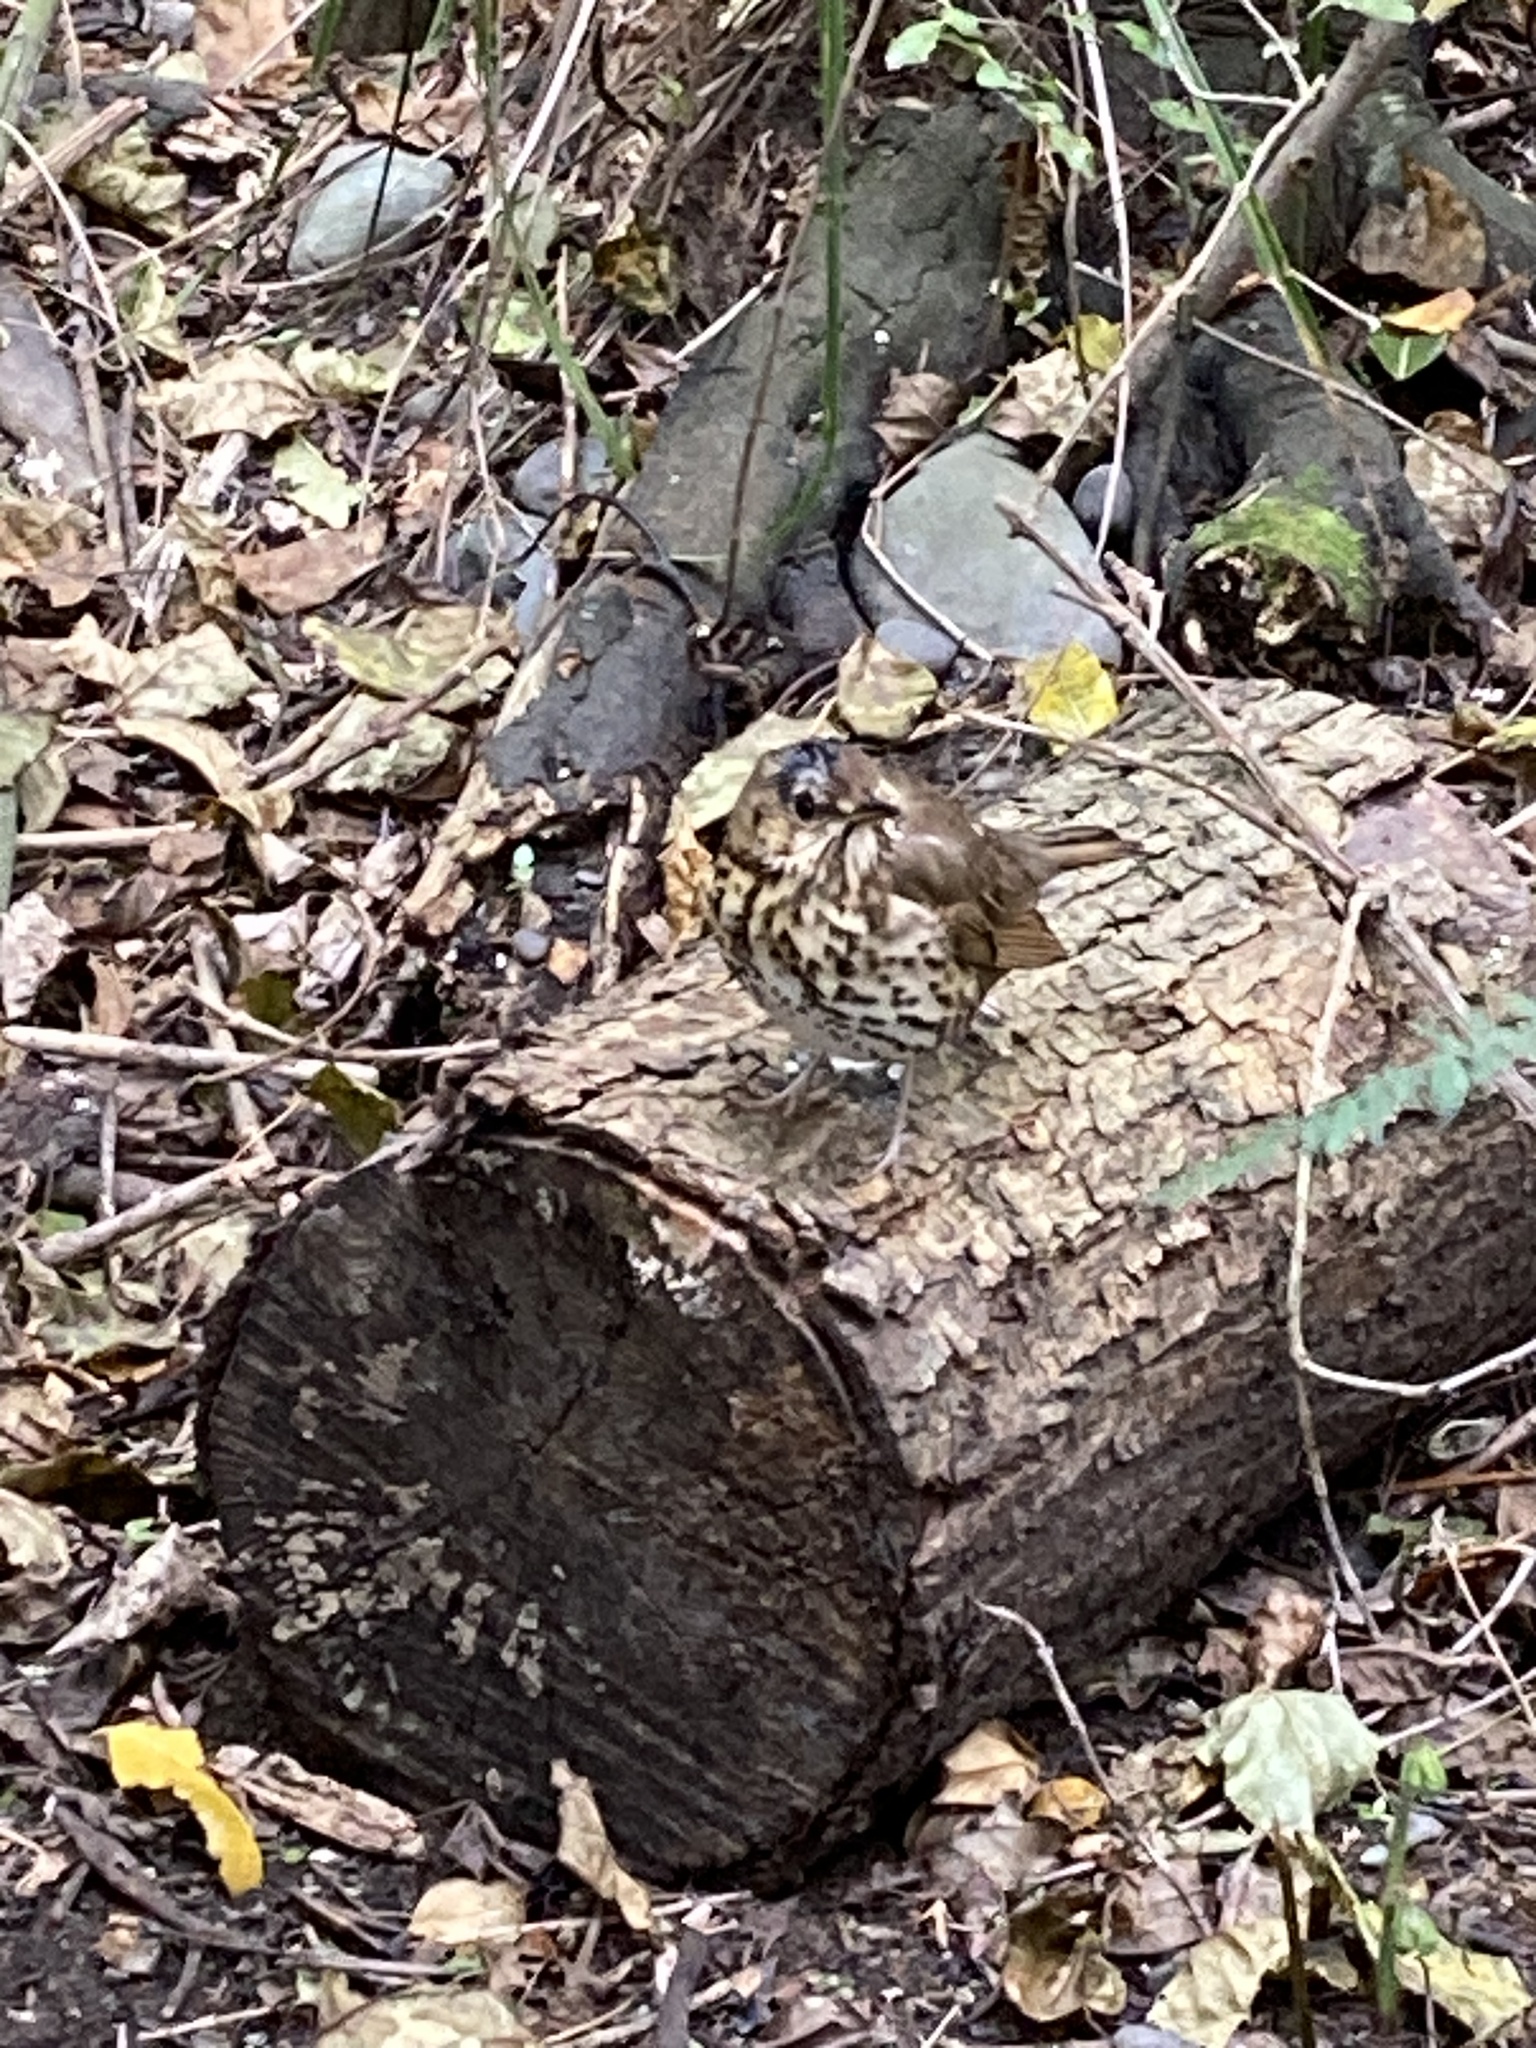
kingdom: Animalia
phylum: Chordata
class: Aves
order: Passeriformes
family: Turdidae
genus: Turdus
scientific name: Turdus philomelos
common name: Song thrush
